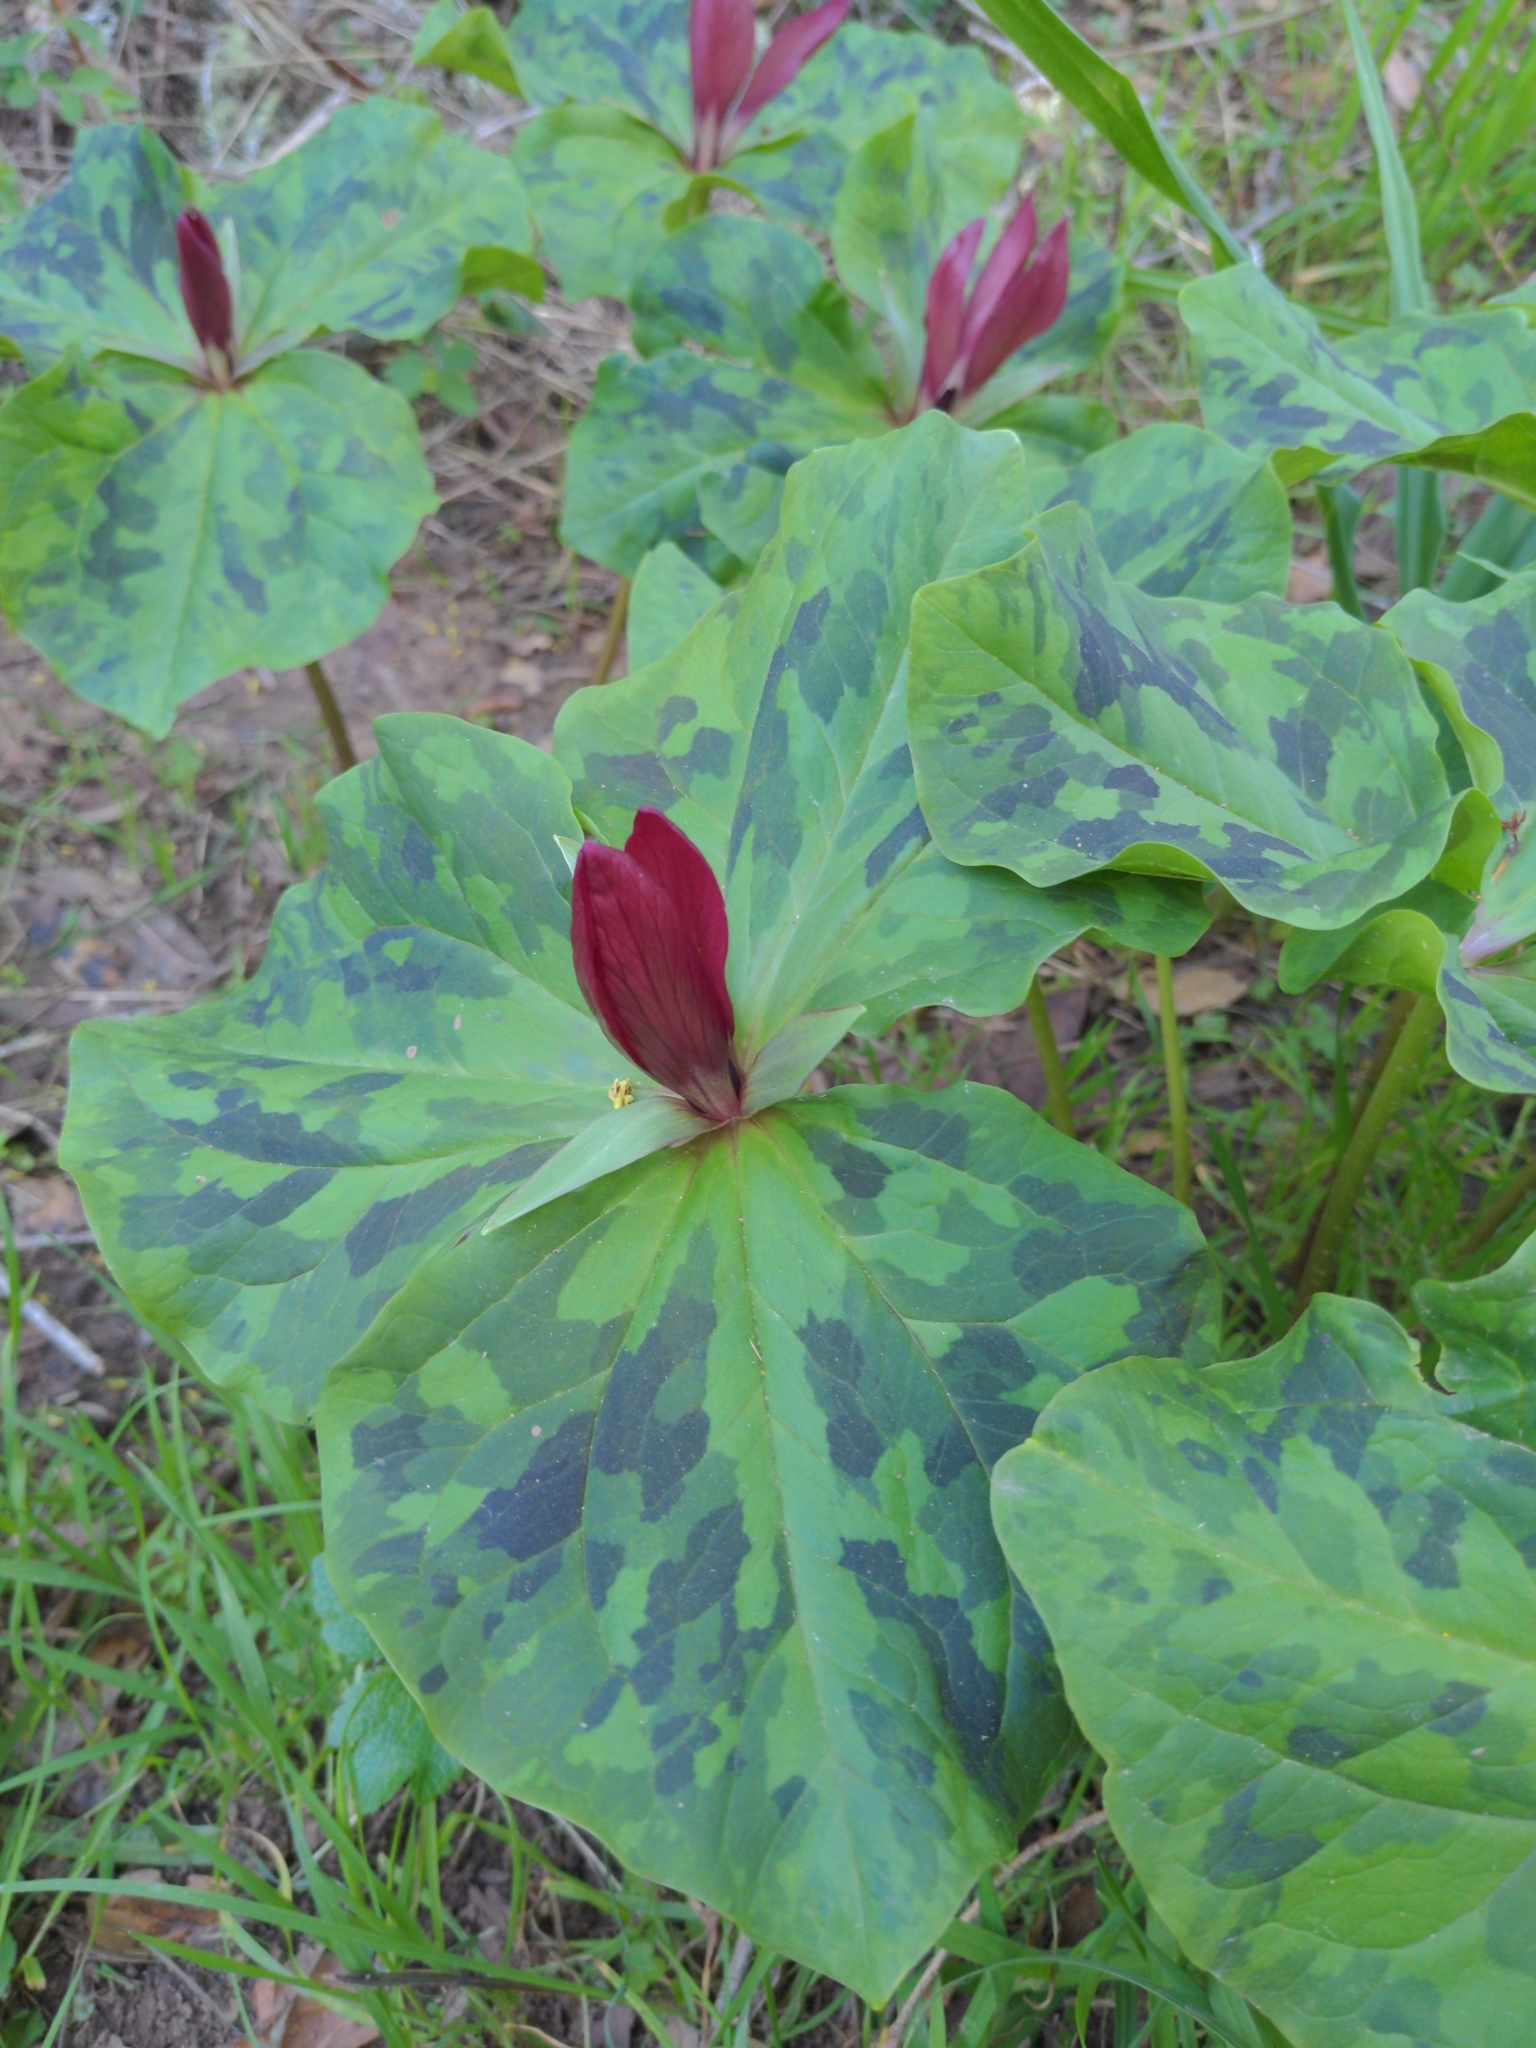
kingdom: Plantae
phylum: Tracheophyta
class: Liliopsida
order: Liliales
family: Melanthiaceae
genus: Trillium
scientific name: Trillium chloropetalum
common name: Giant trillium
